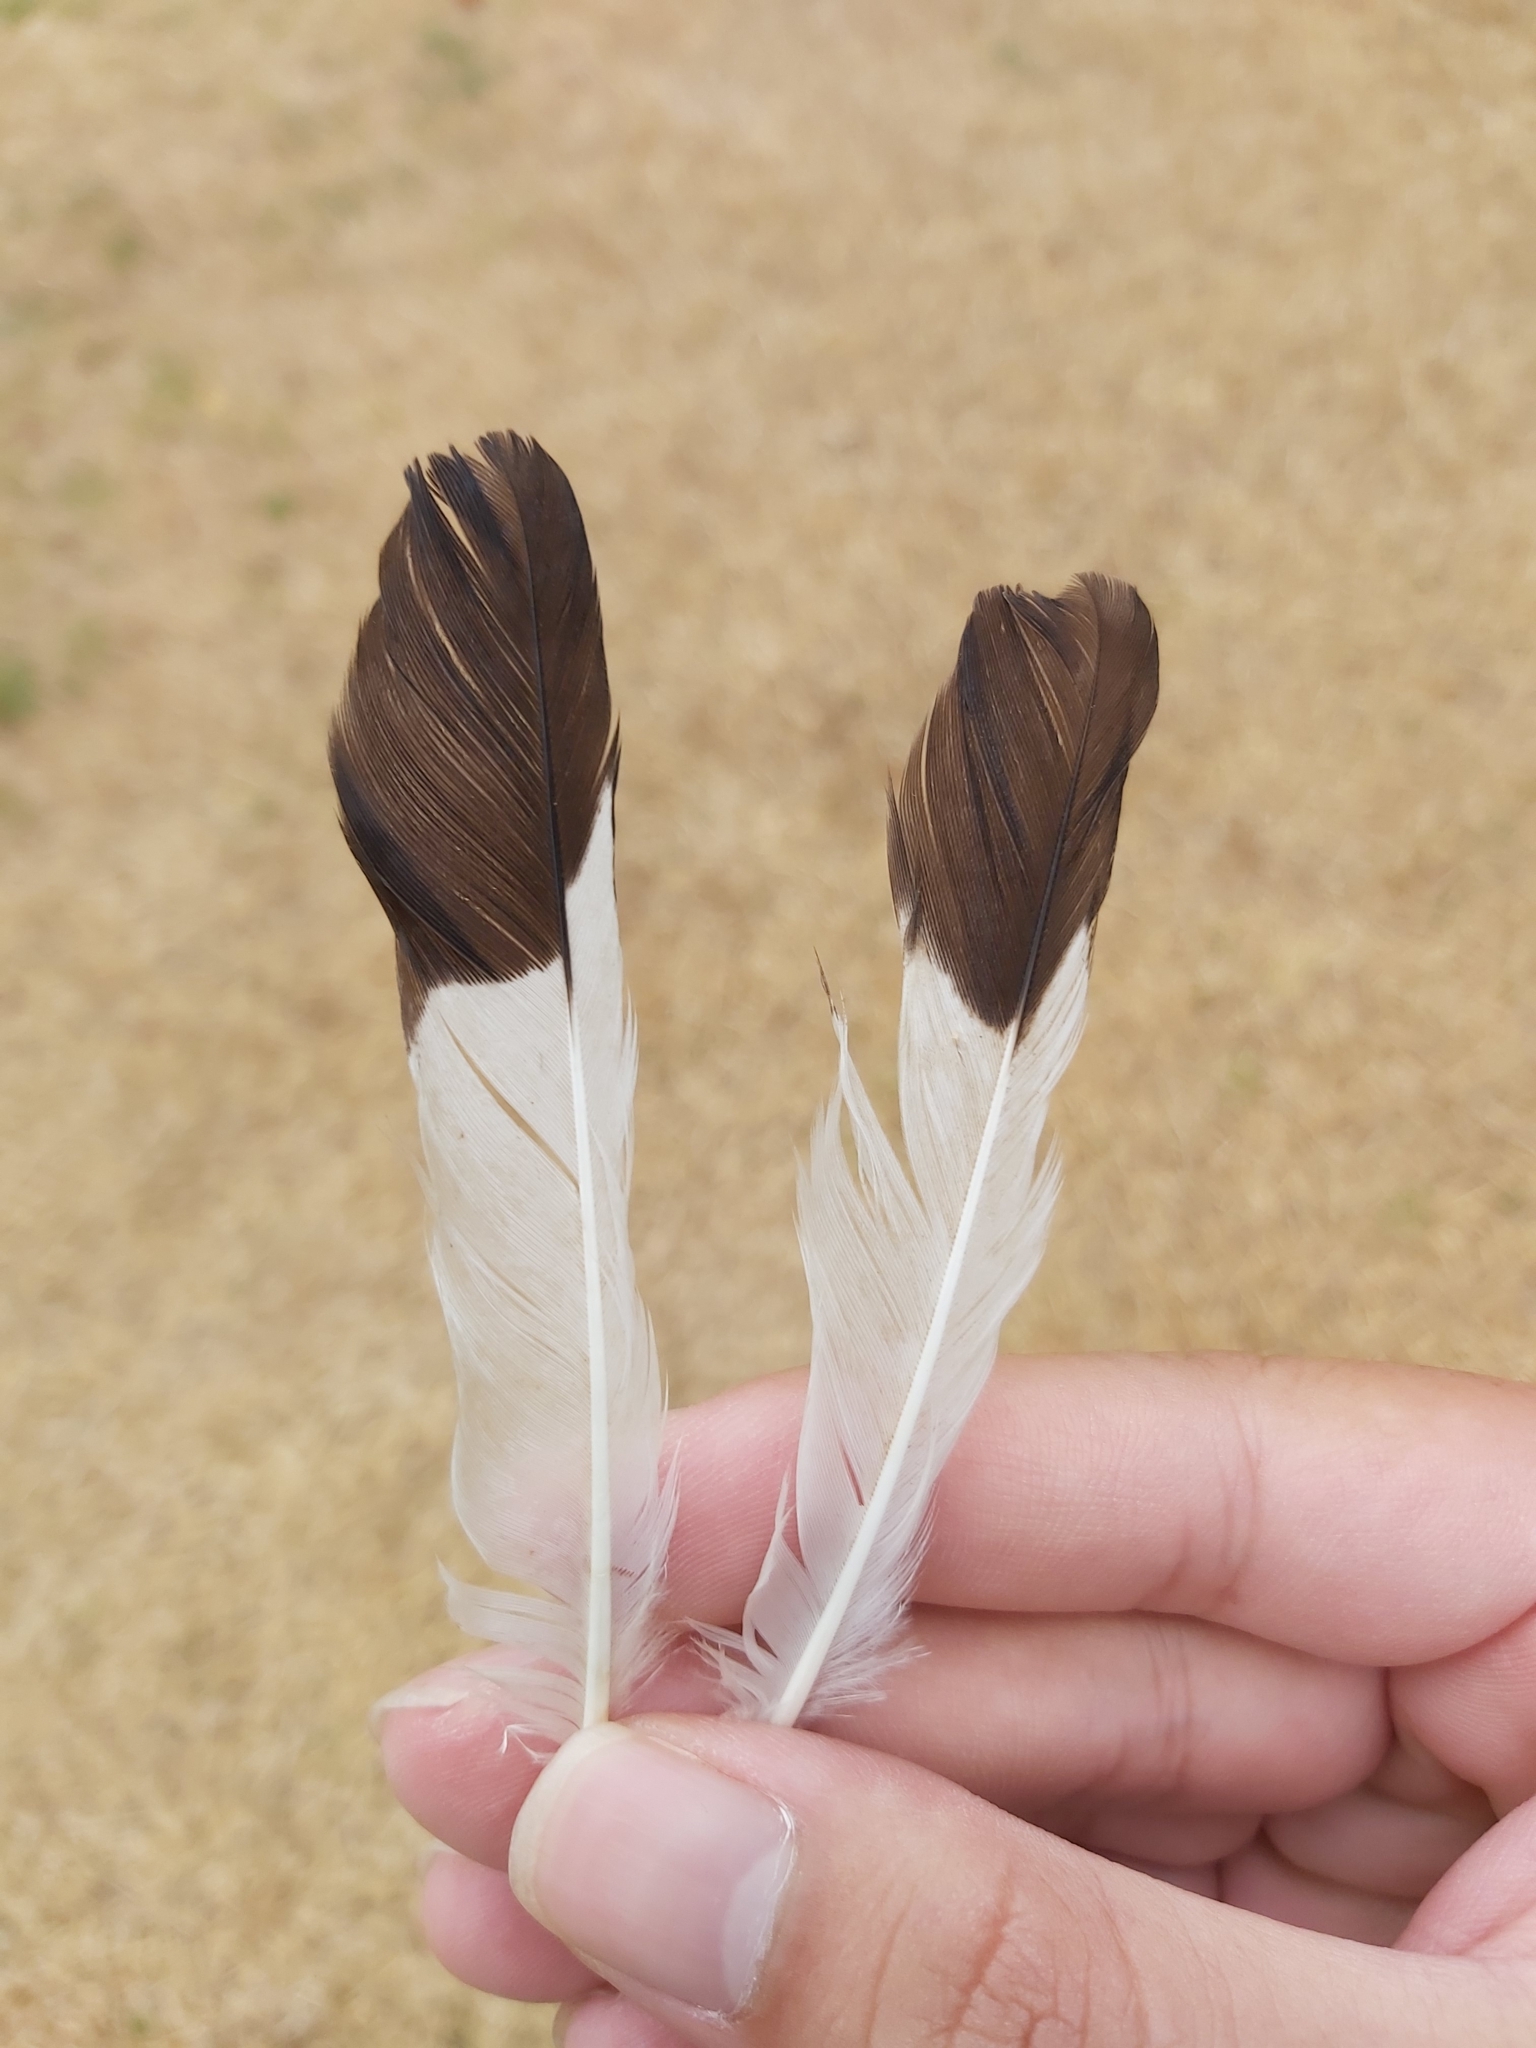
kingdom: Animalia
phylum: Chordata
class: Aves
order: Passeriformes
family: Sturnidae
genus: Acridotheres
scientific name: Acridotheres tristis
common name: Common myna
